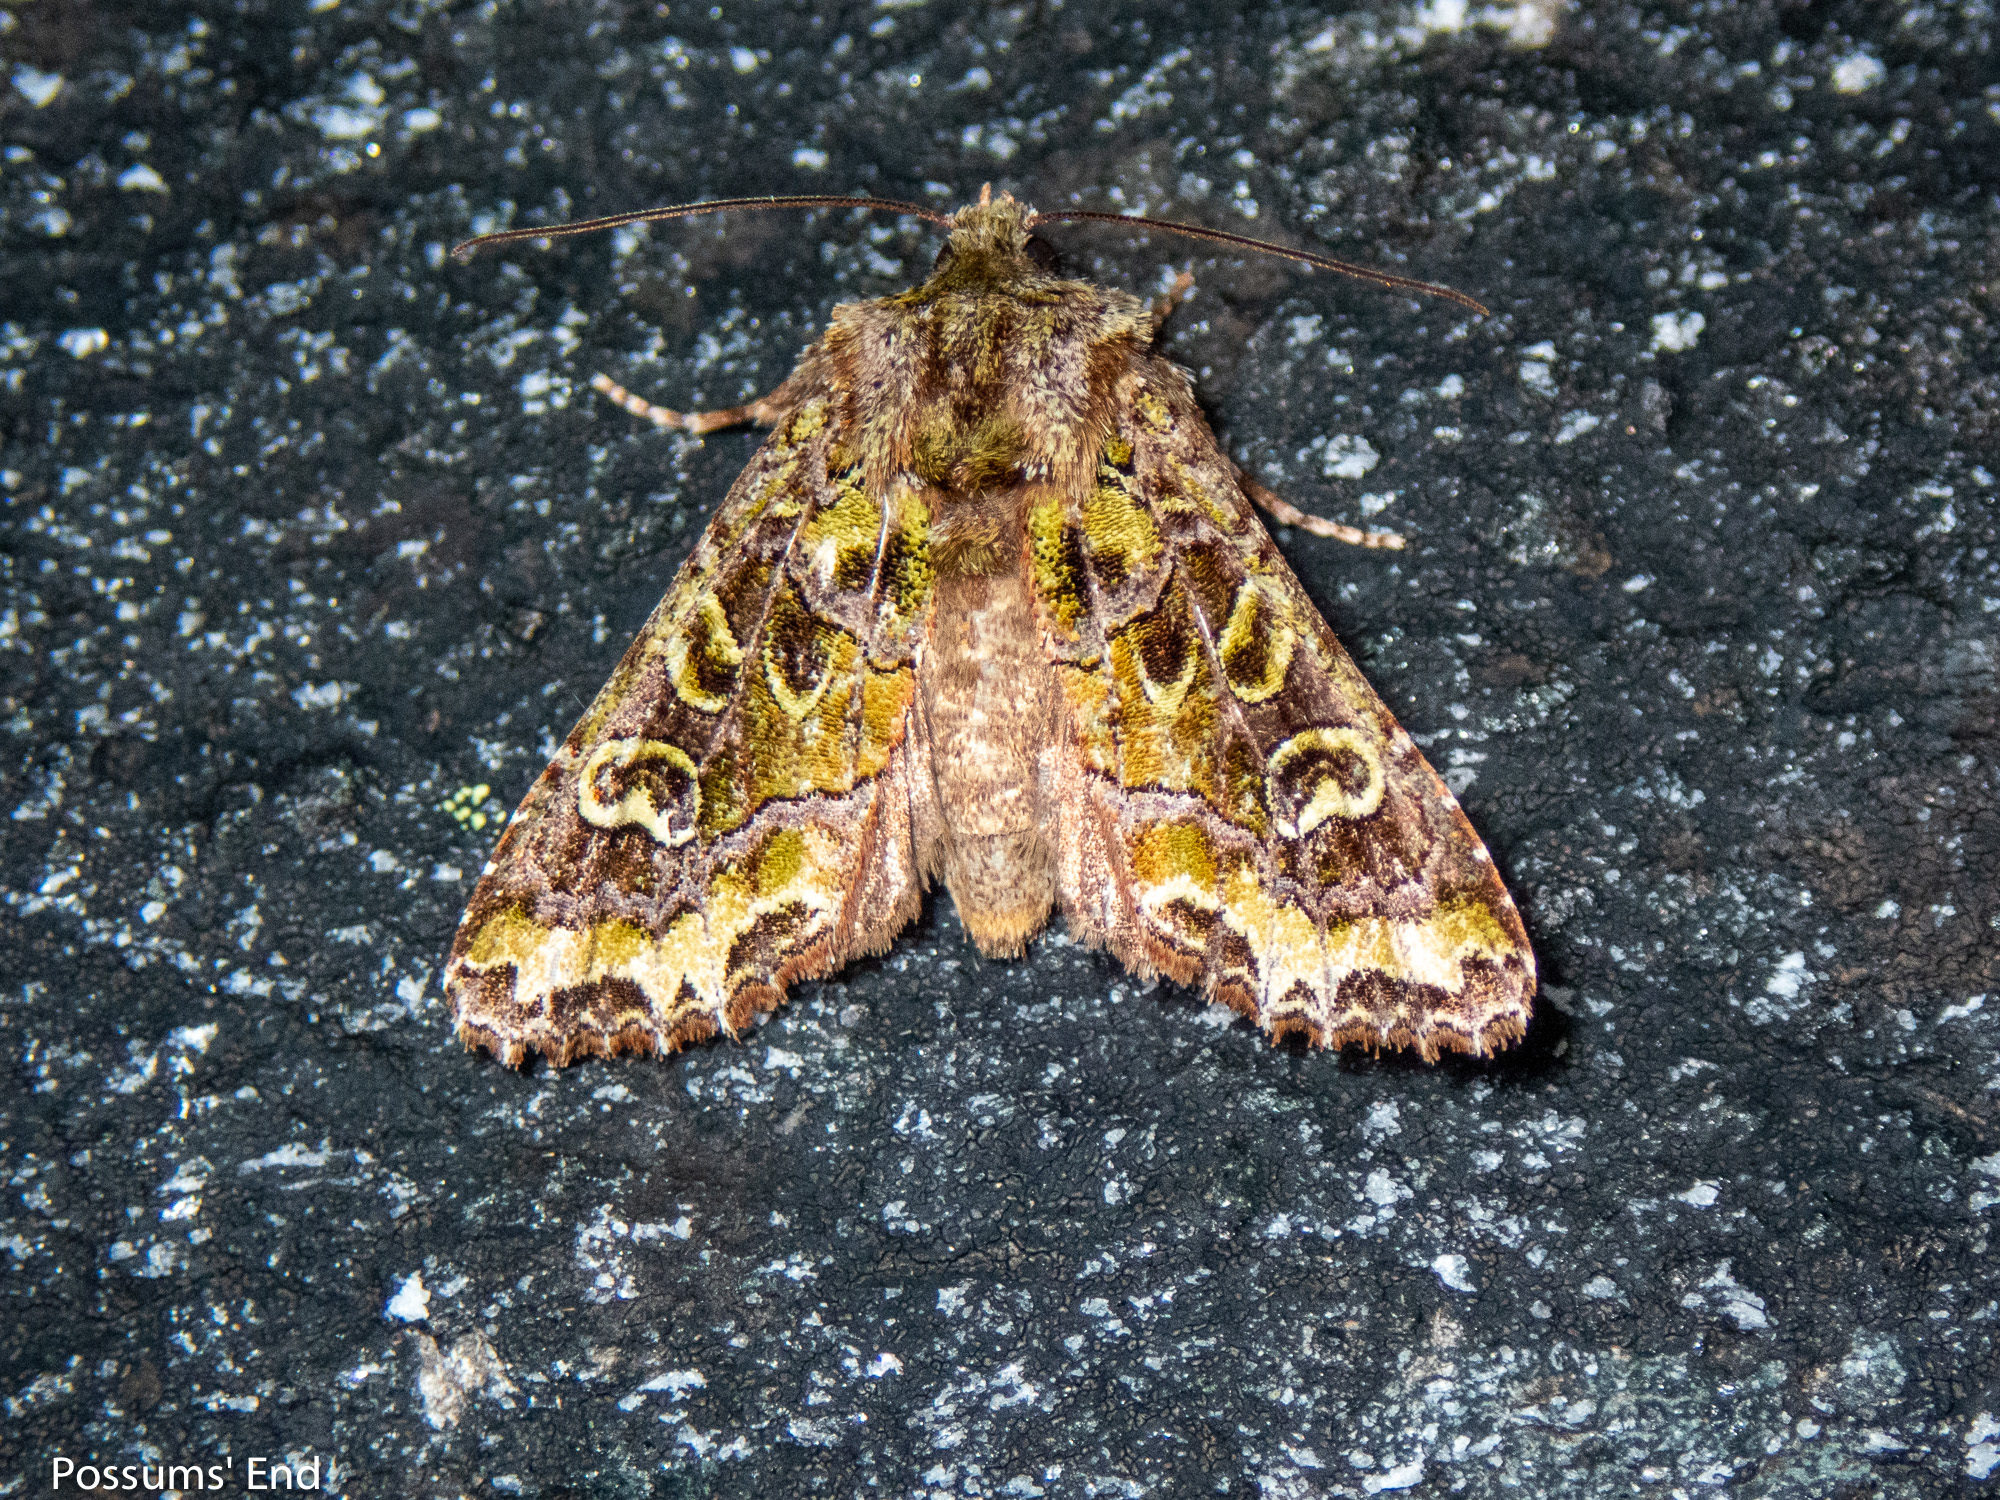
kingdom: Animalia
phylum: Arthropoda
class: Insecta
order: Lepidoptera
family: Noctuidae
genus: Ichneutica
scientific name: Ichneutica chlorodonta
